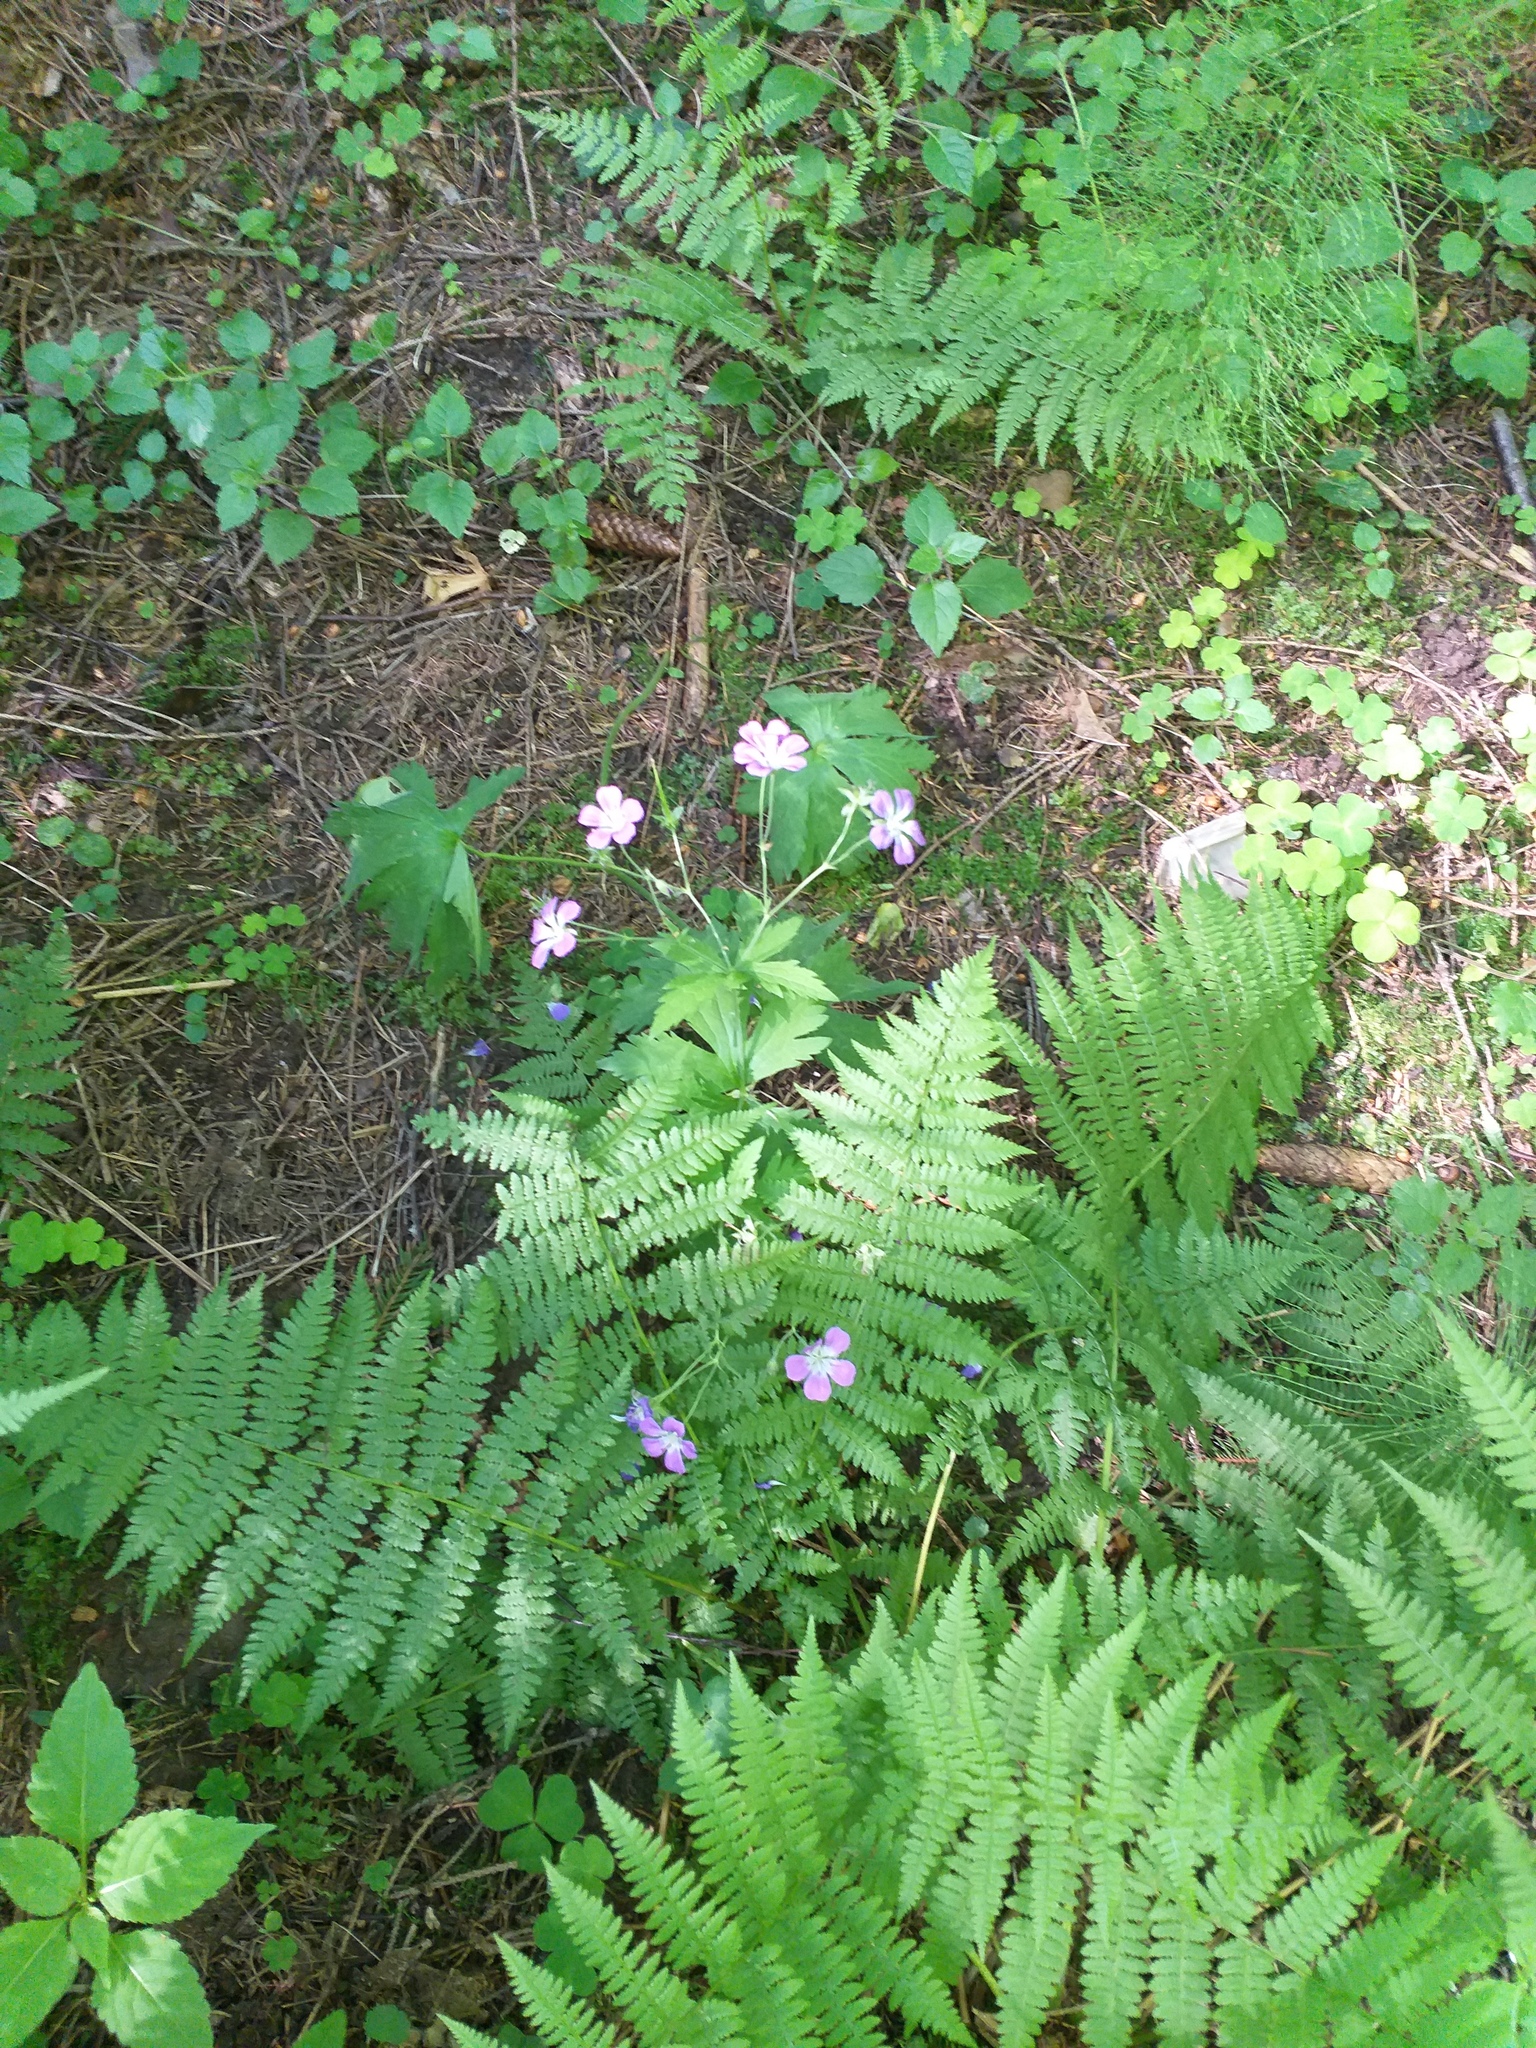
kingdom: Plantae
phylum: Tracheophyta
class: Magnoliopsida
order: Geraniales
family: Geraniaceae
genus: Geranium
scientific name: Geranium sylvaticum
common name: Wood crane's-bill
